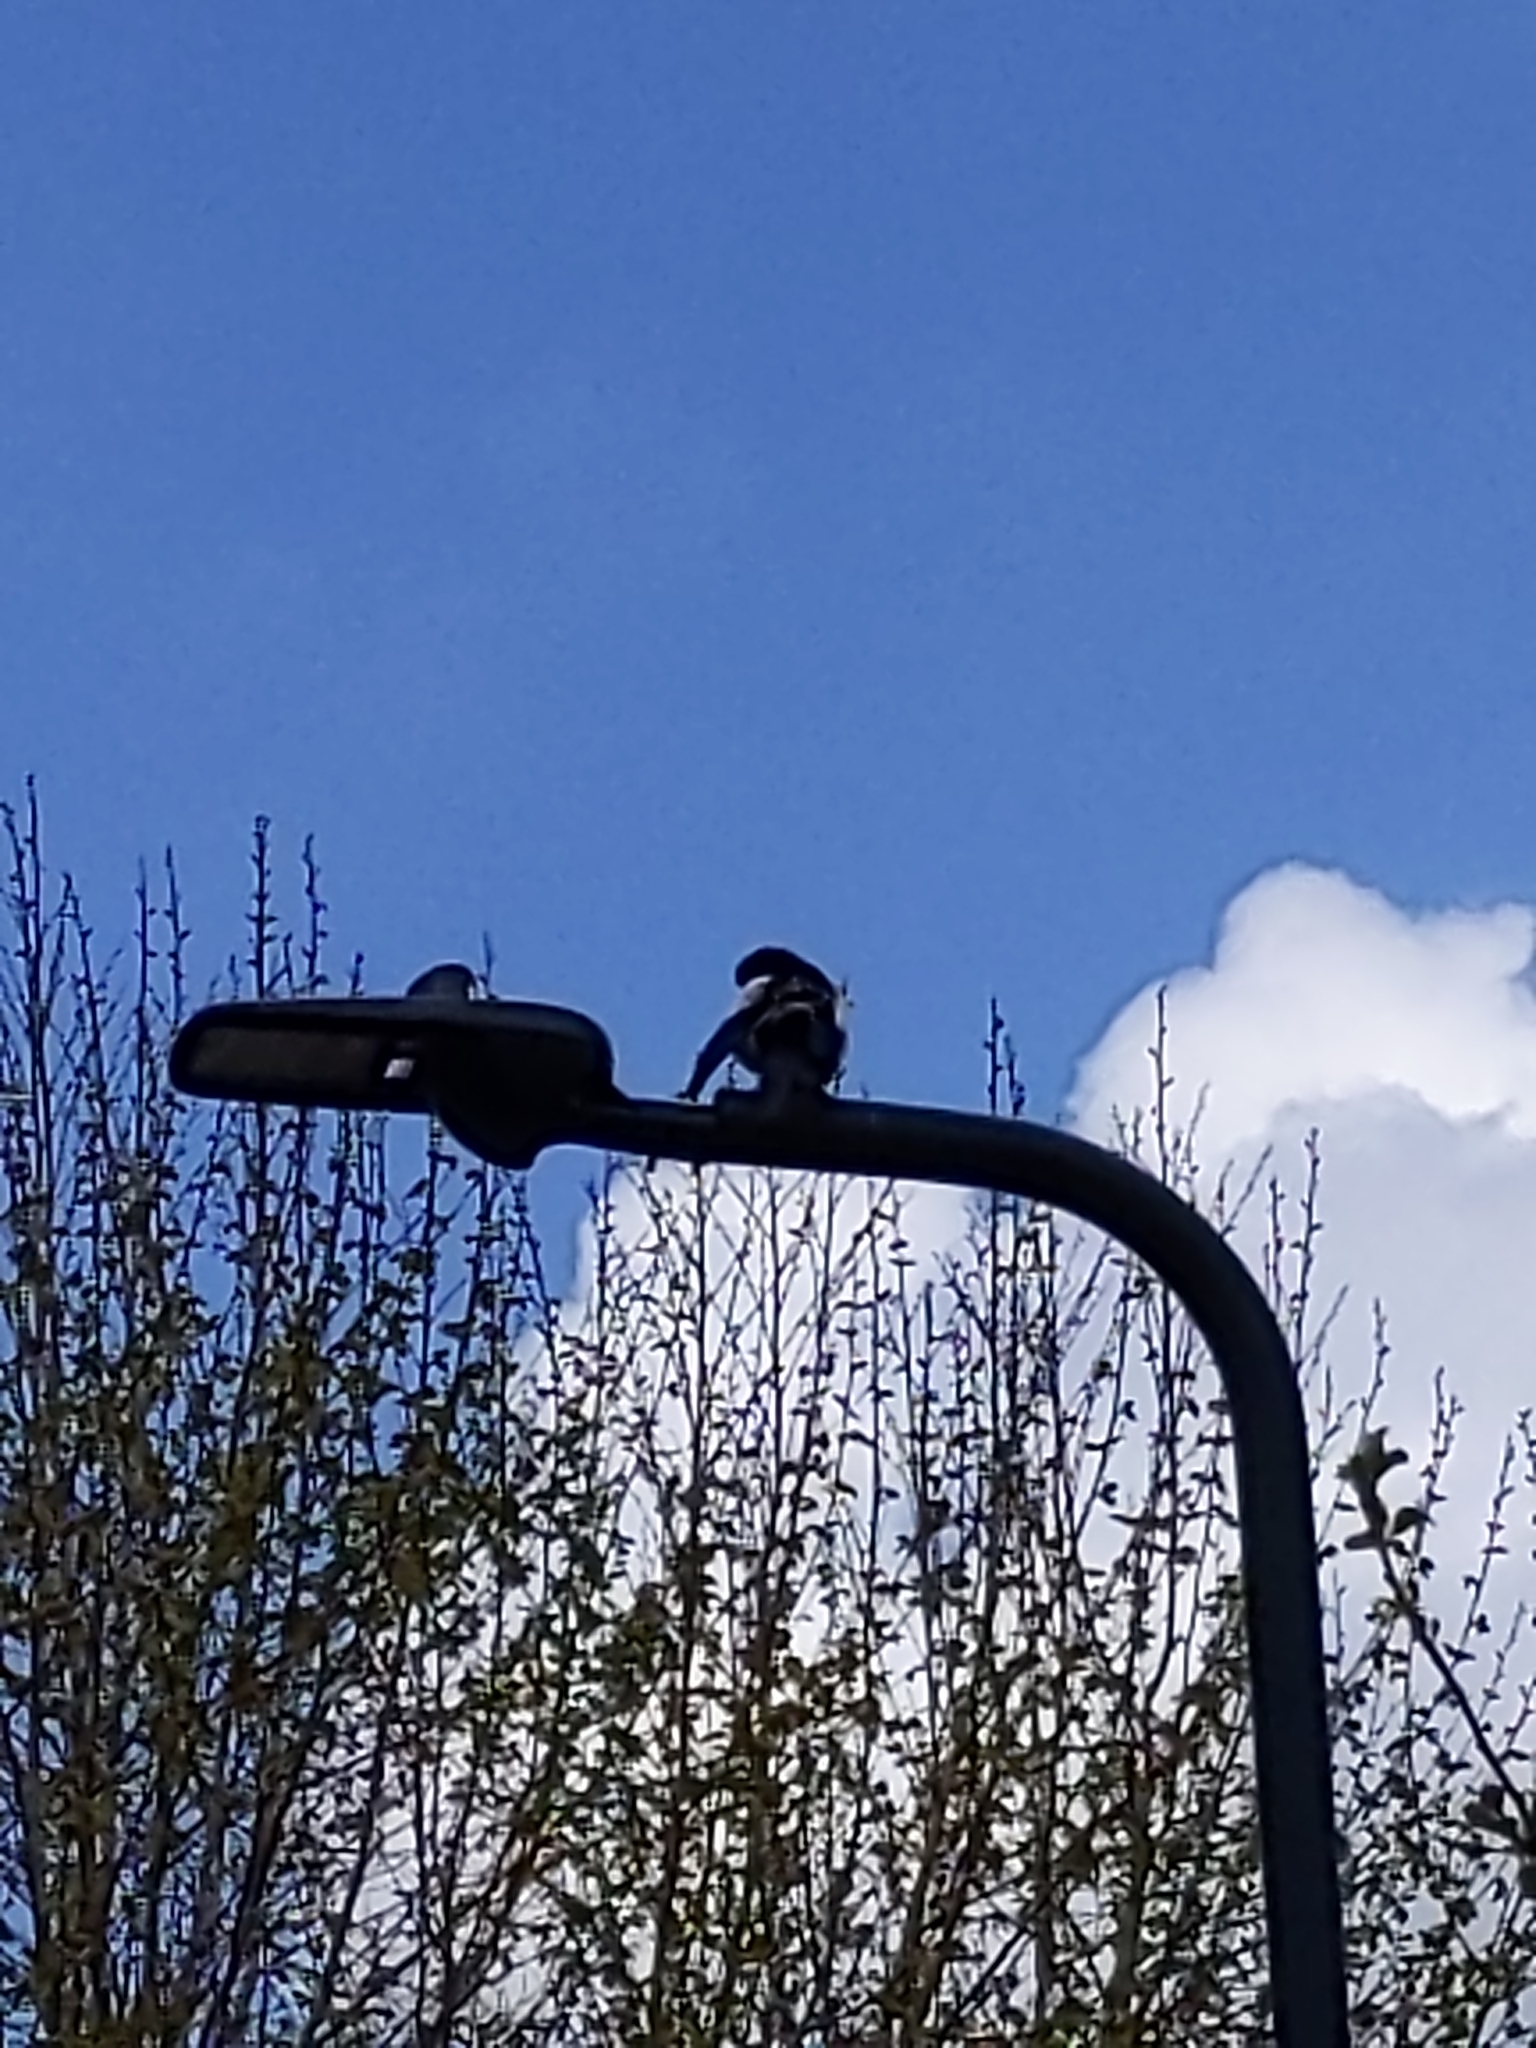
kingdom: Animalia
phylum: Chordata
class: Aves
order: Passeriformes
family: Corvidae
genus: Pica
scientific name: Pica pica
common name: Eurasian magpie
